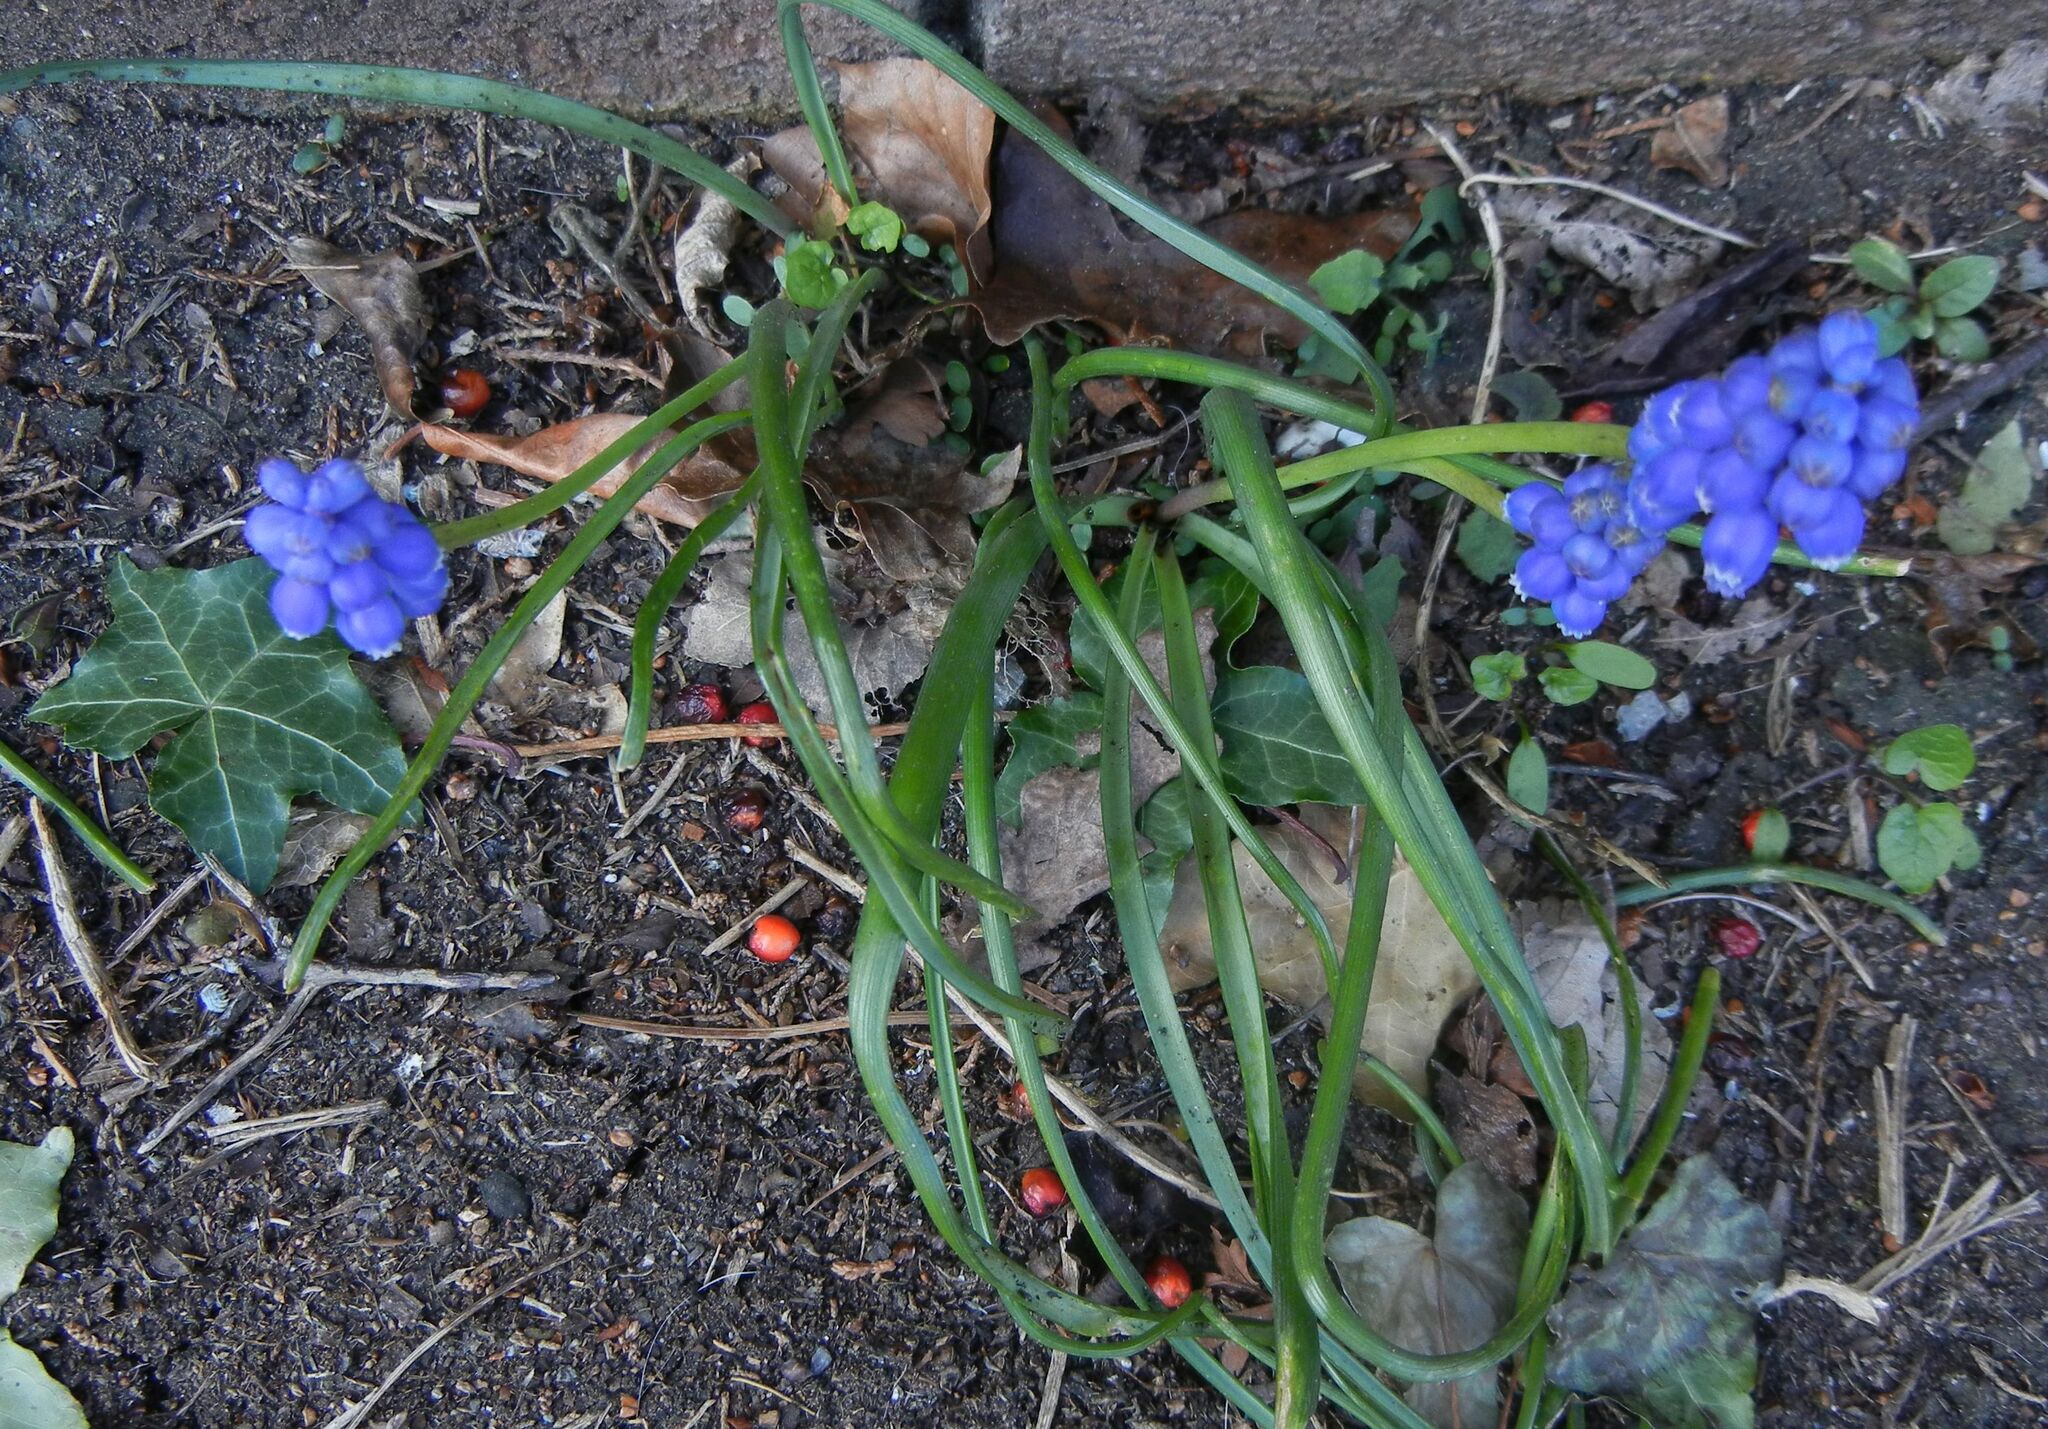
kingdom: Plantae
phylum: Tracheophyta
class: Liliopsida
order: Asparagales
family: Asparagaceae
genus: Muscari
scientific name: Muscari armeniacum
